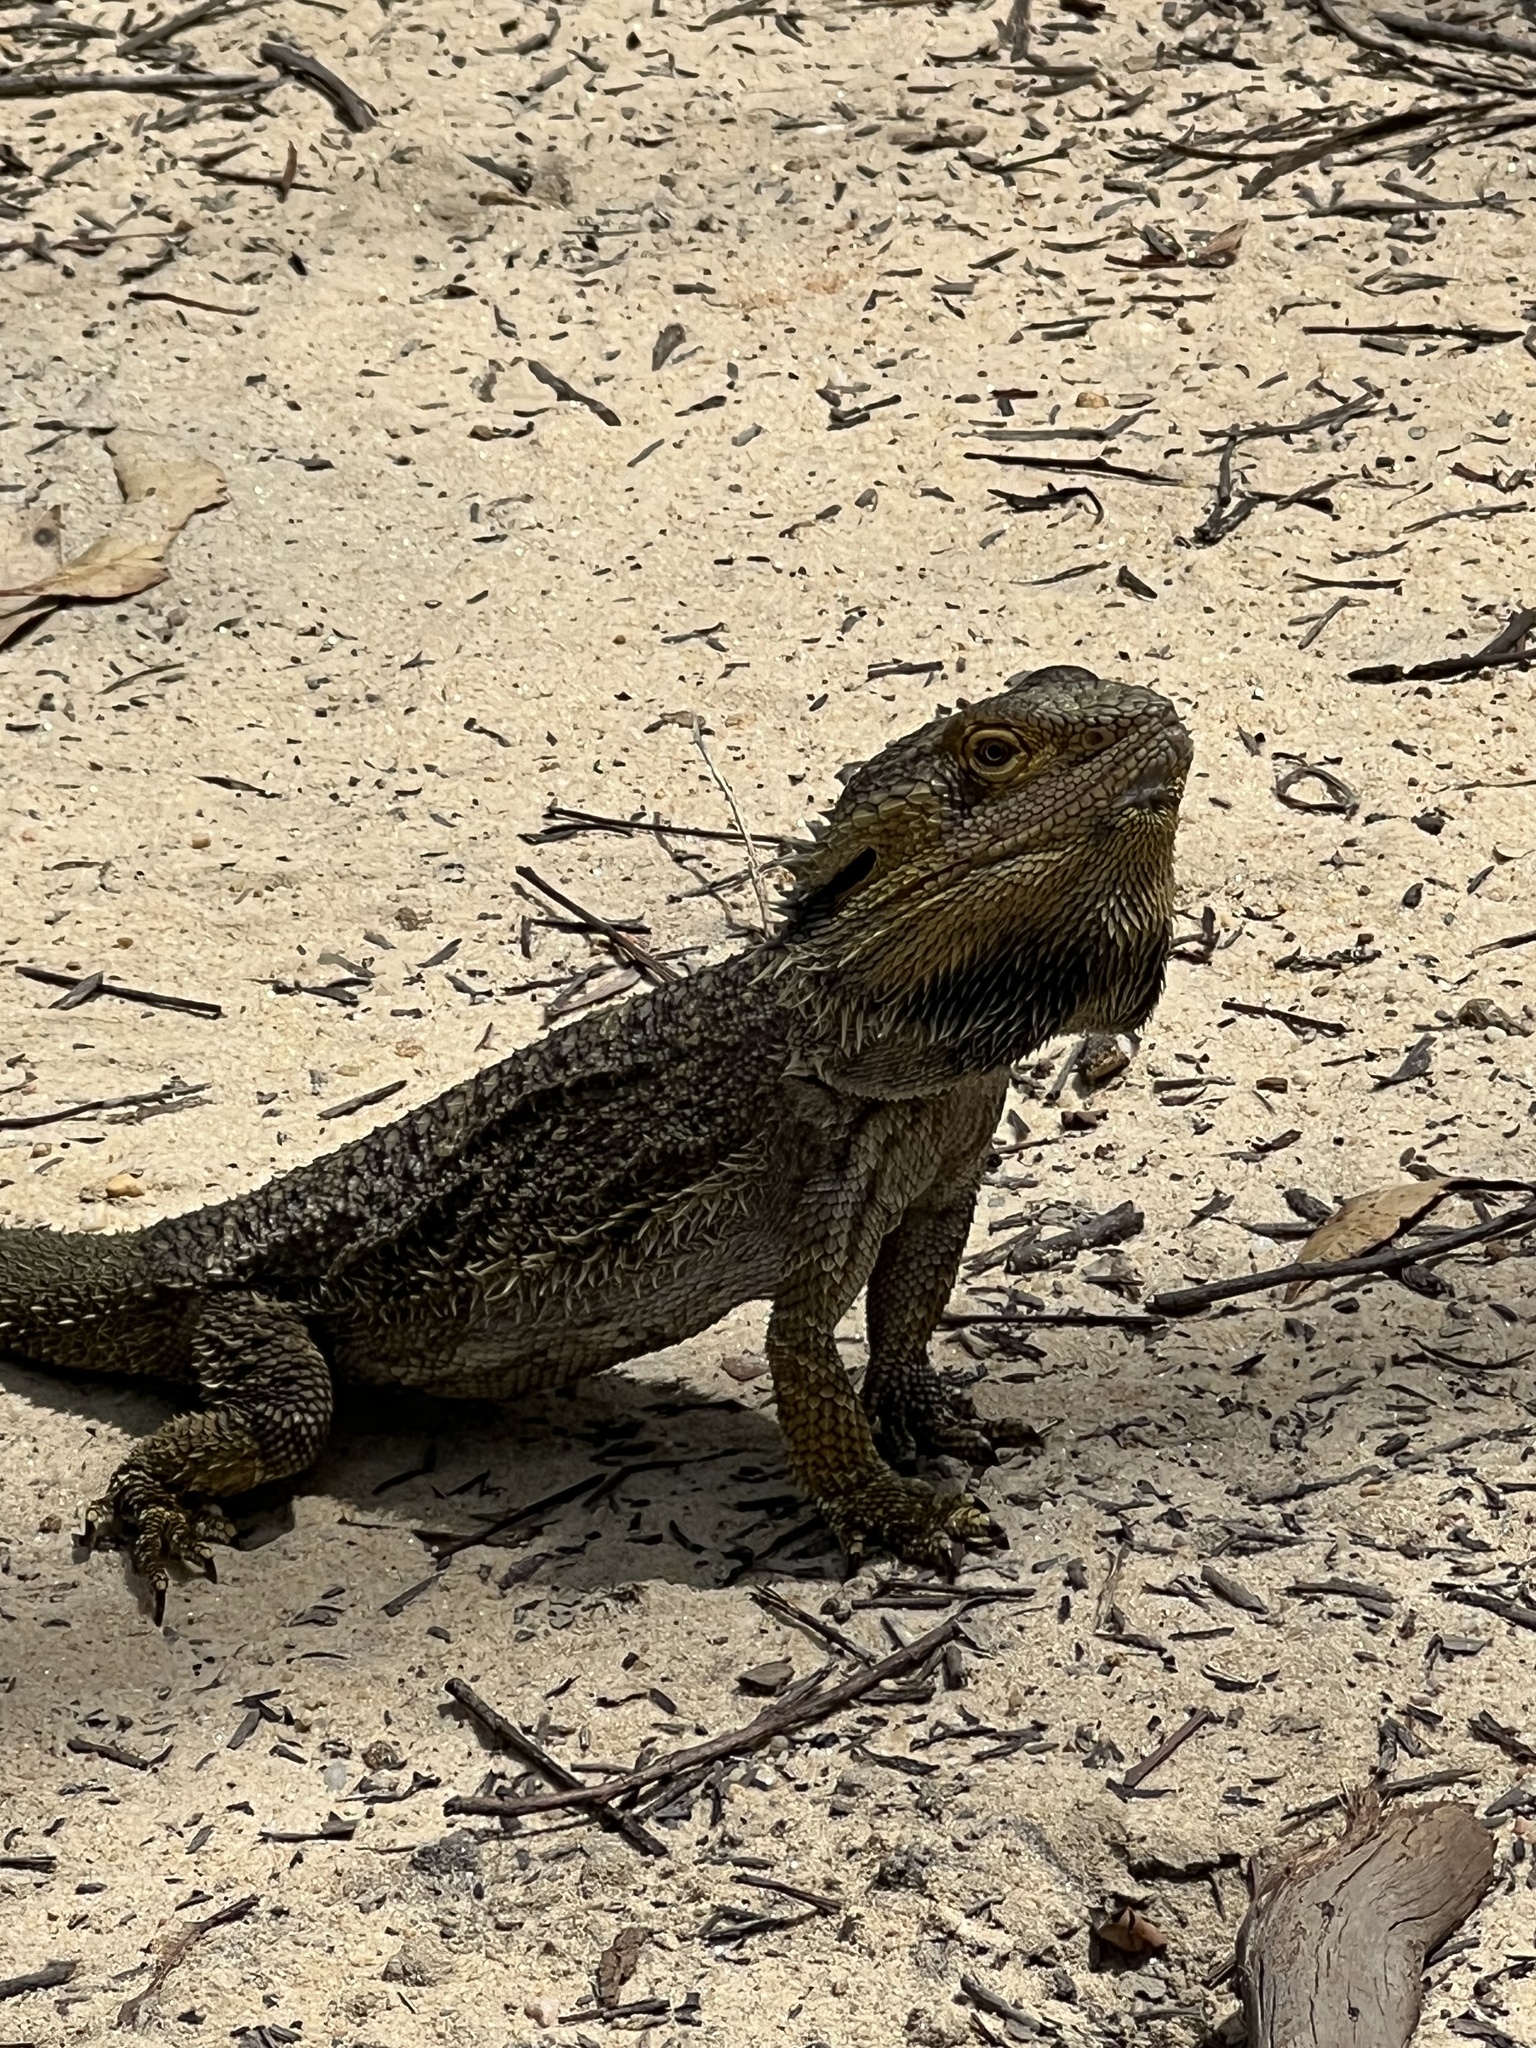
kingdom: Animalia
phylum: Chordata
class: Squamata
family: Agamidae
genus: Pogona
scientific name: Pogona barbata
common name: Bearded dragon
